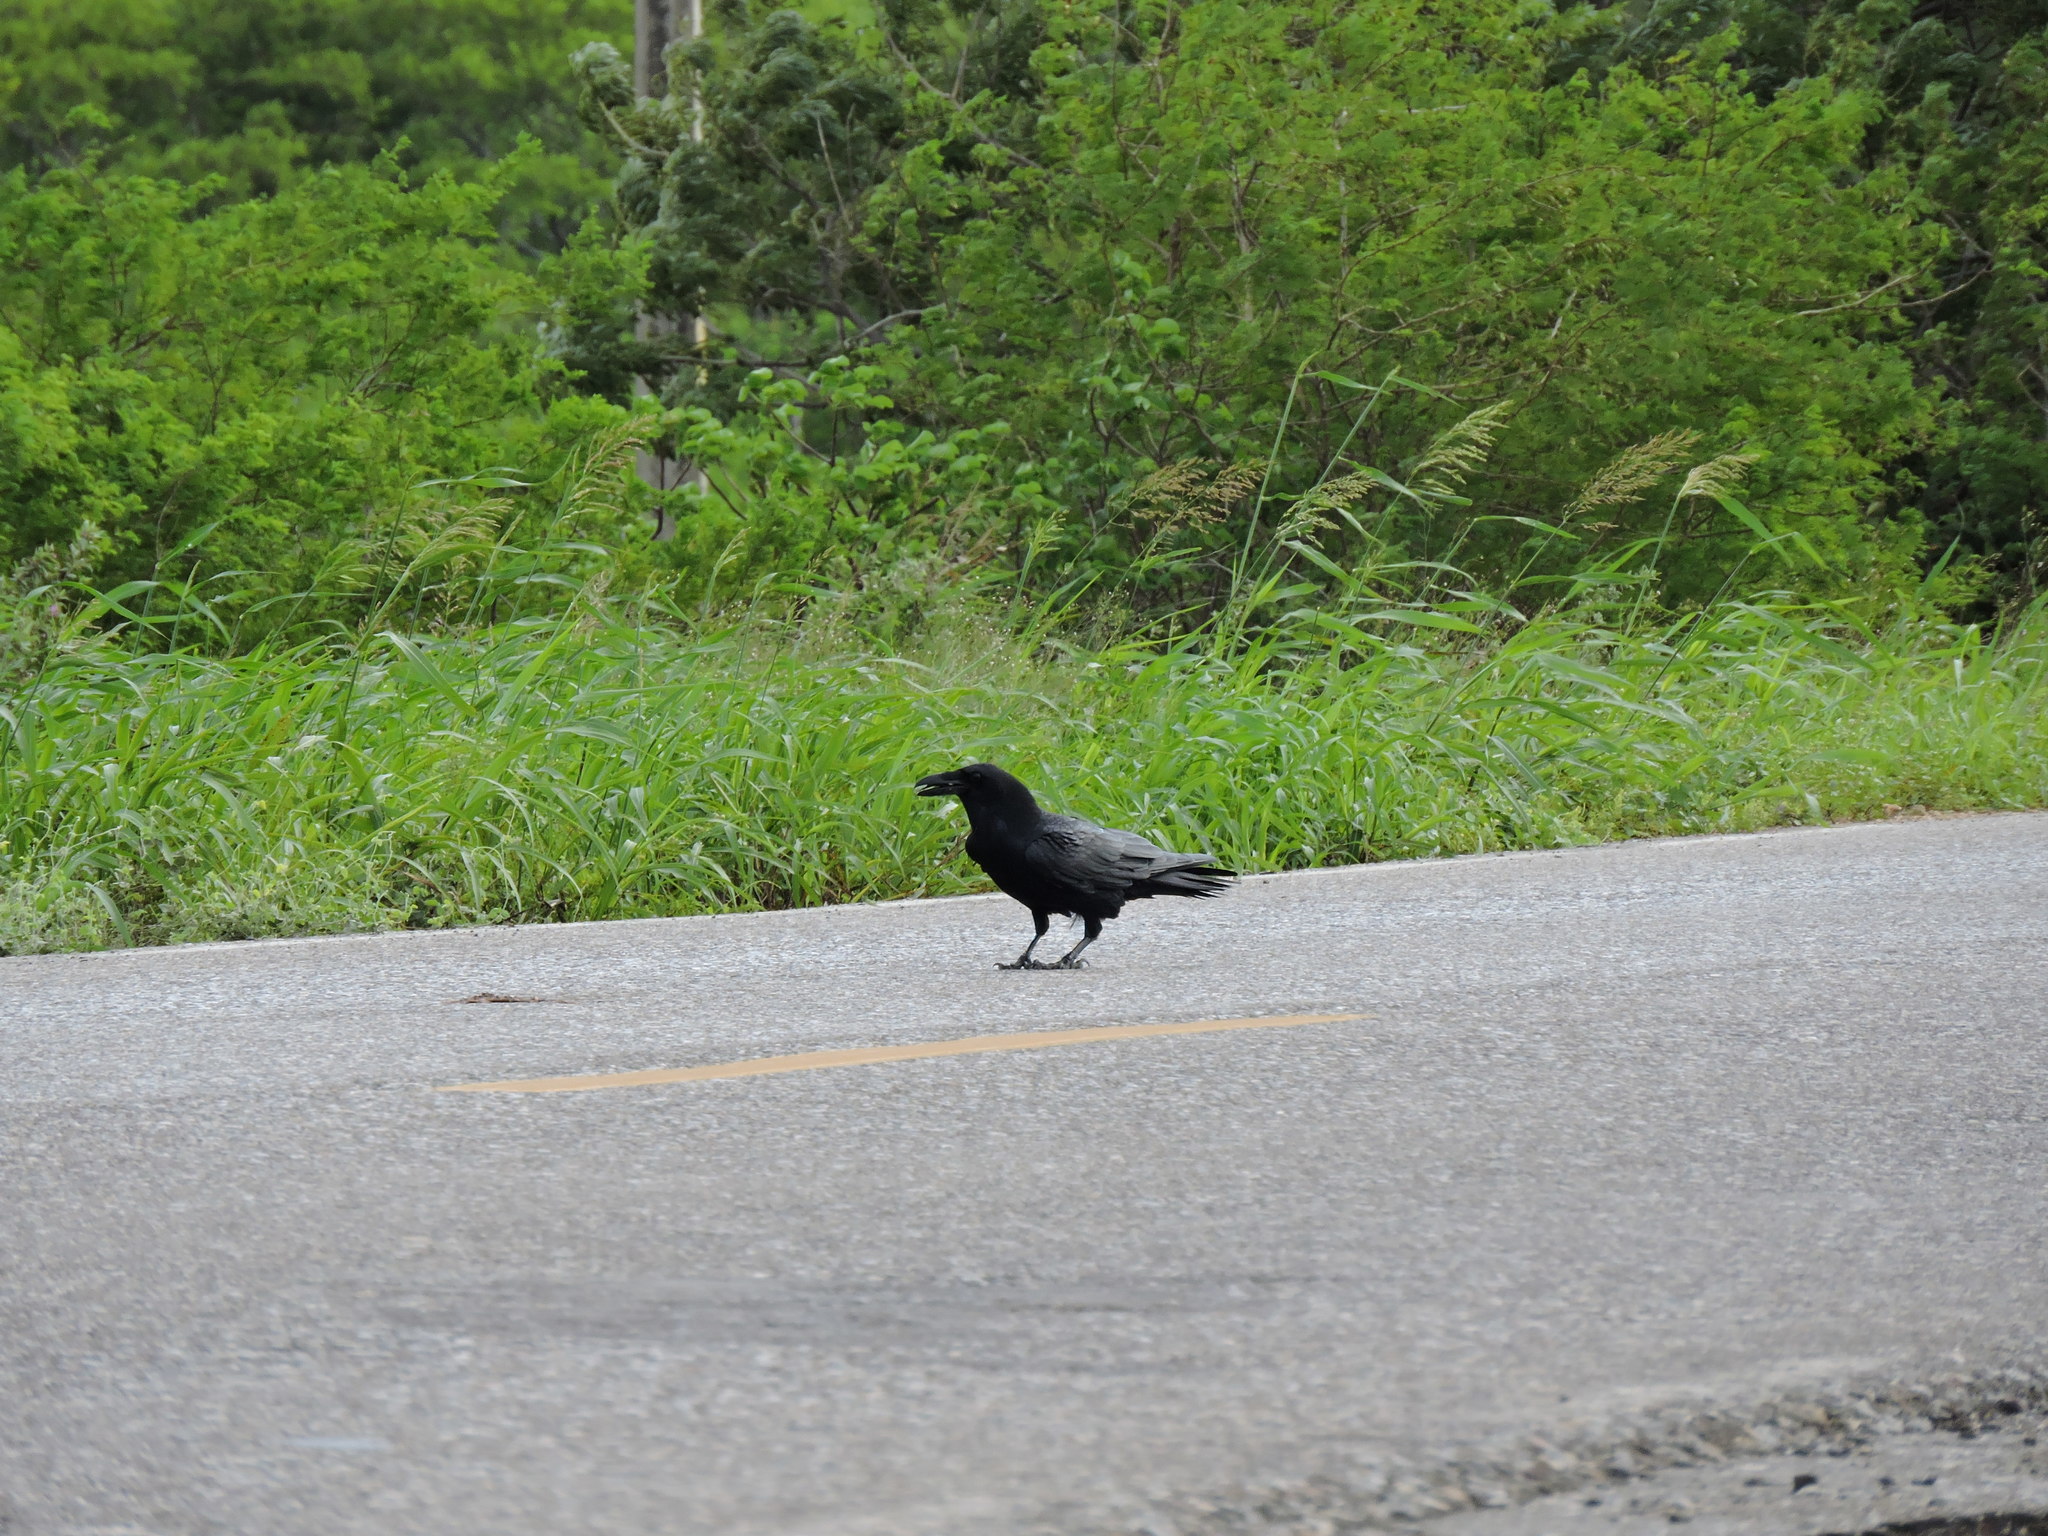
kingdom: Animalia
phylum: Chordata
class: Aves
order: Passeriformes
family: Corvidae
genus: Corvus
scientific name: Corvus corax
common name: Common raven
